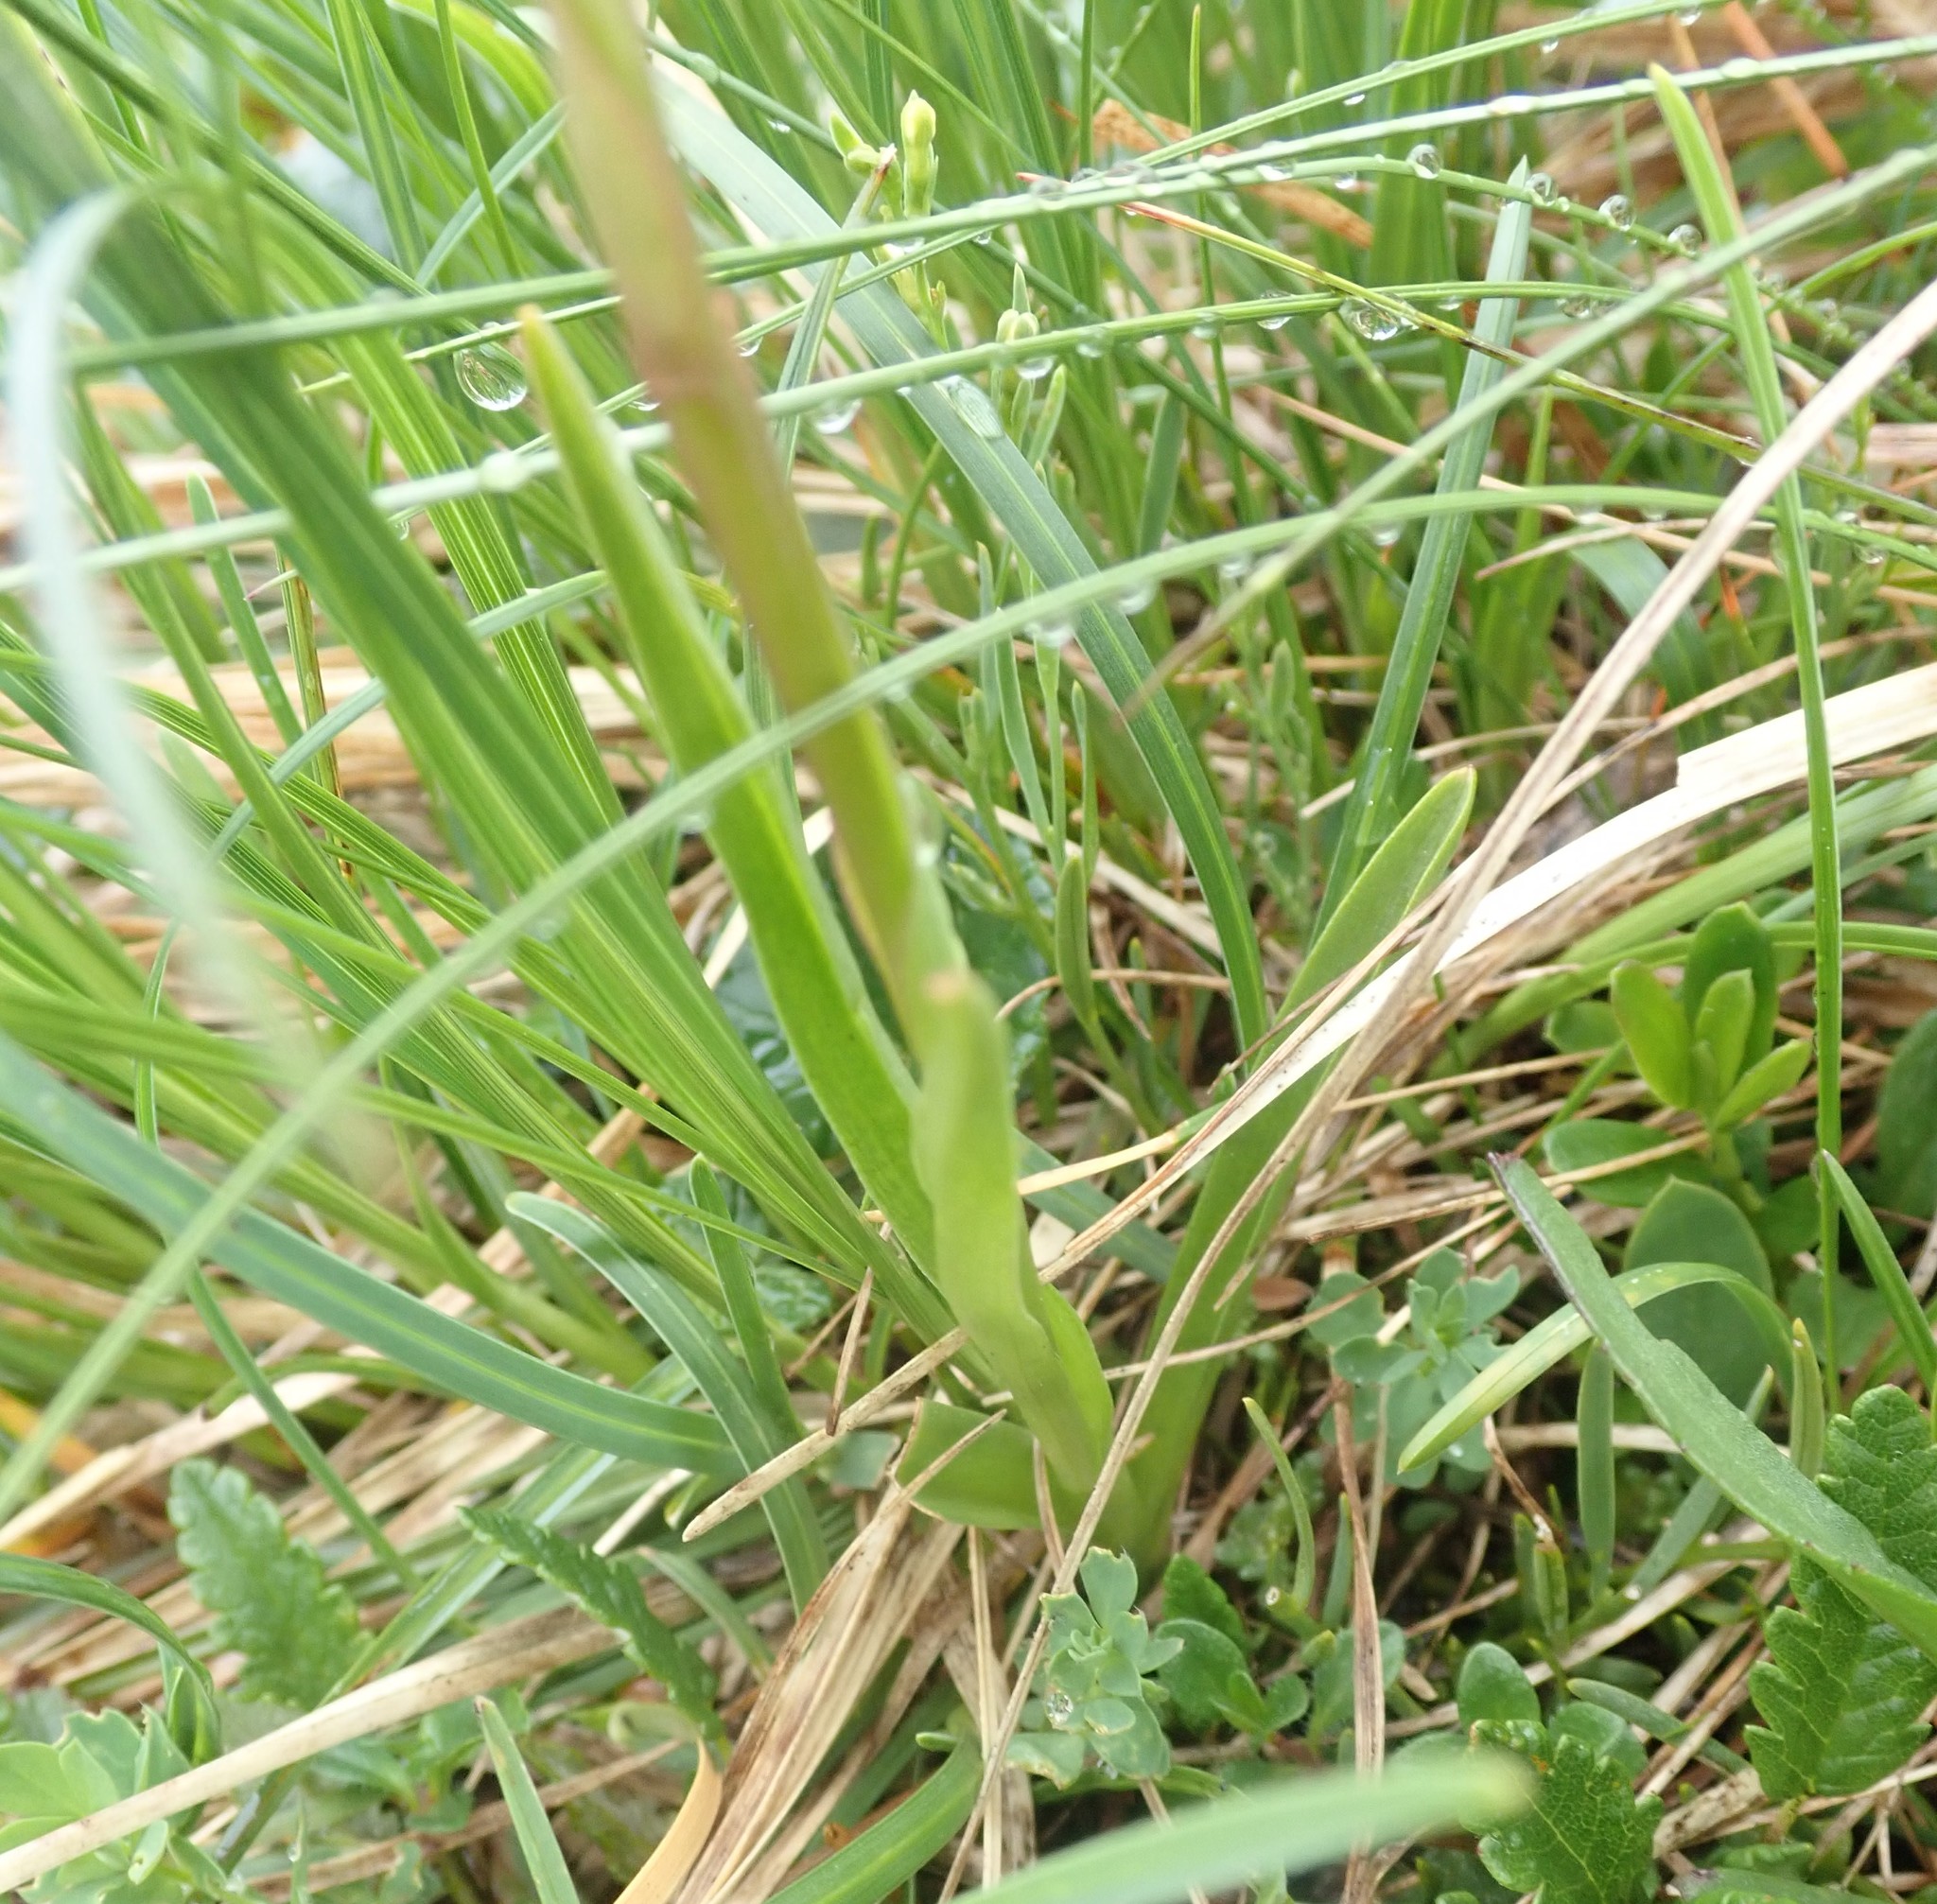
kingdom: Plantae
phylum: Tracheophyta
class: Liliopsida
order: Asparagales
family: Orchidaceae
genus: Gymnadenia
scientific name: Gymnadenia conopsea
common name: Fragrant orchid
